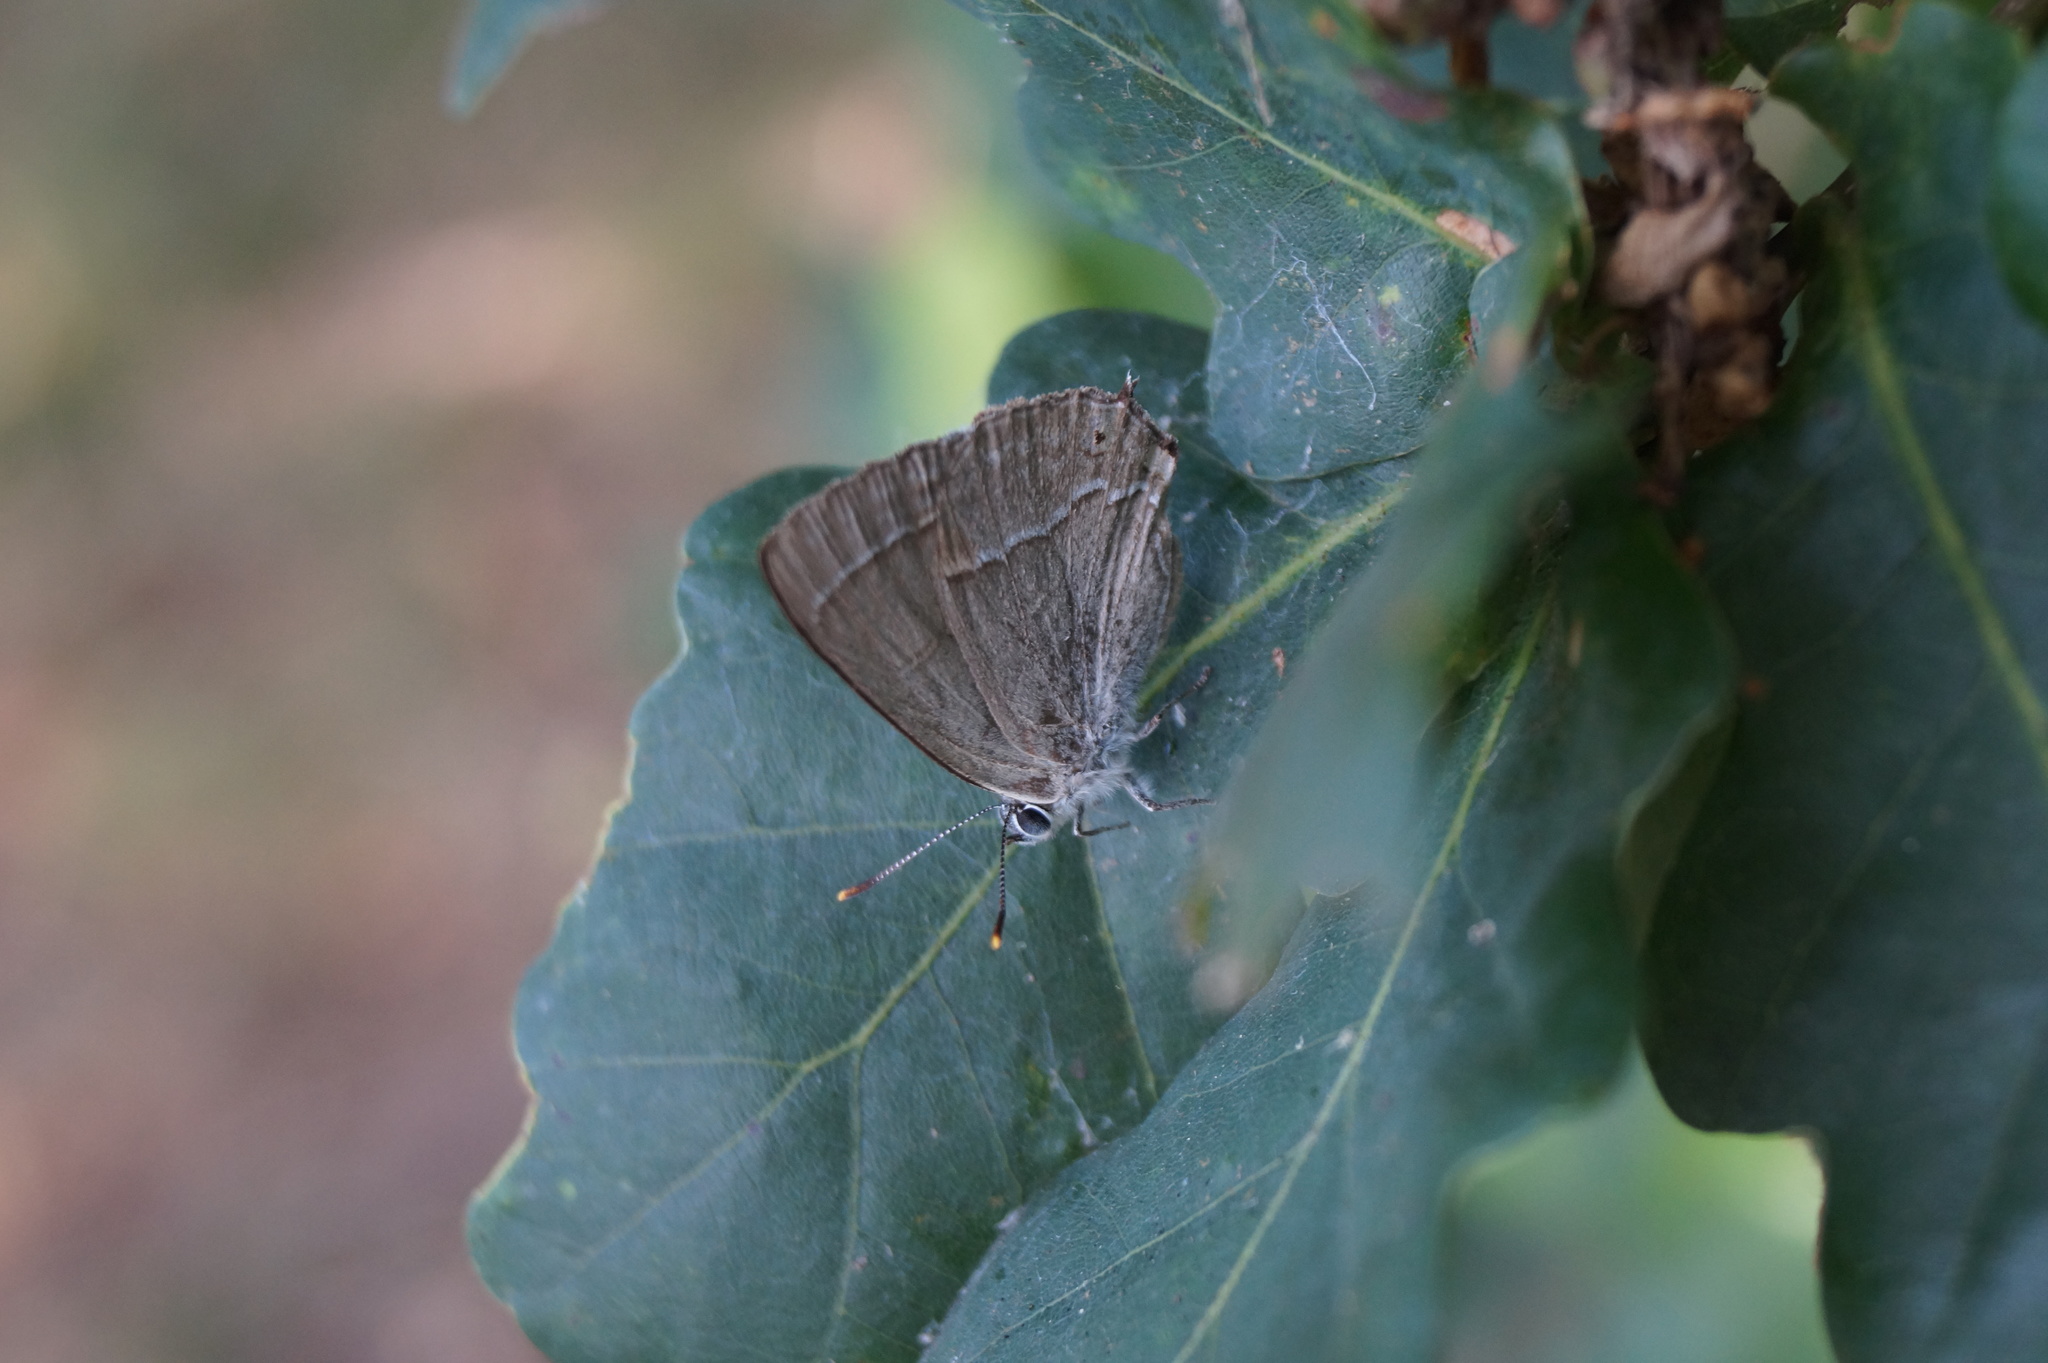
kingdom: Animalia
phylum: Arthropoda
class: Insecta
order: Lepidoptera
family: Lycaenidae
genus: Quercusia
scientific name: Quercusia quercus
